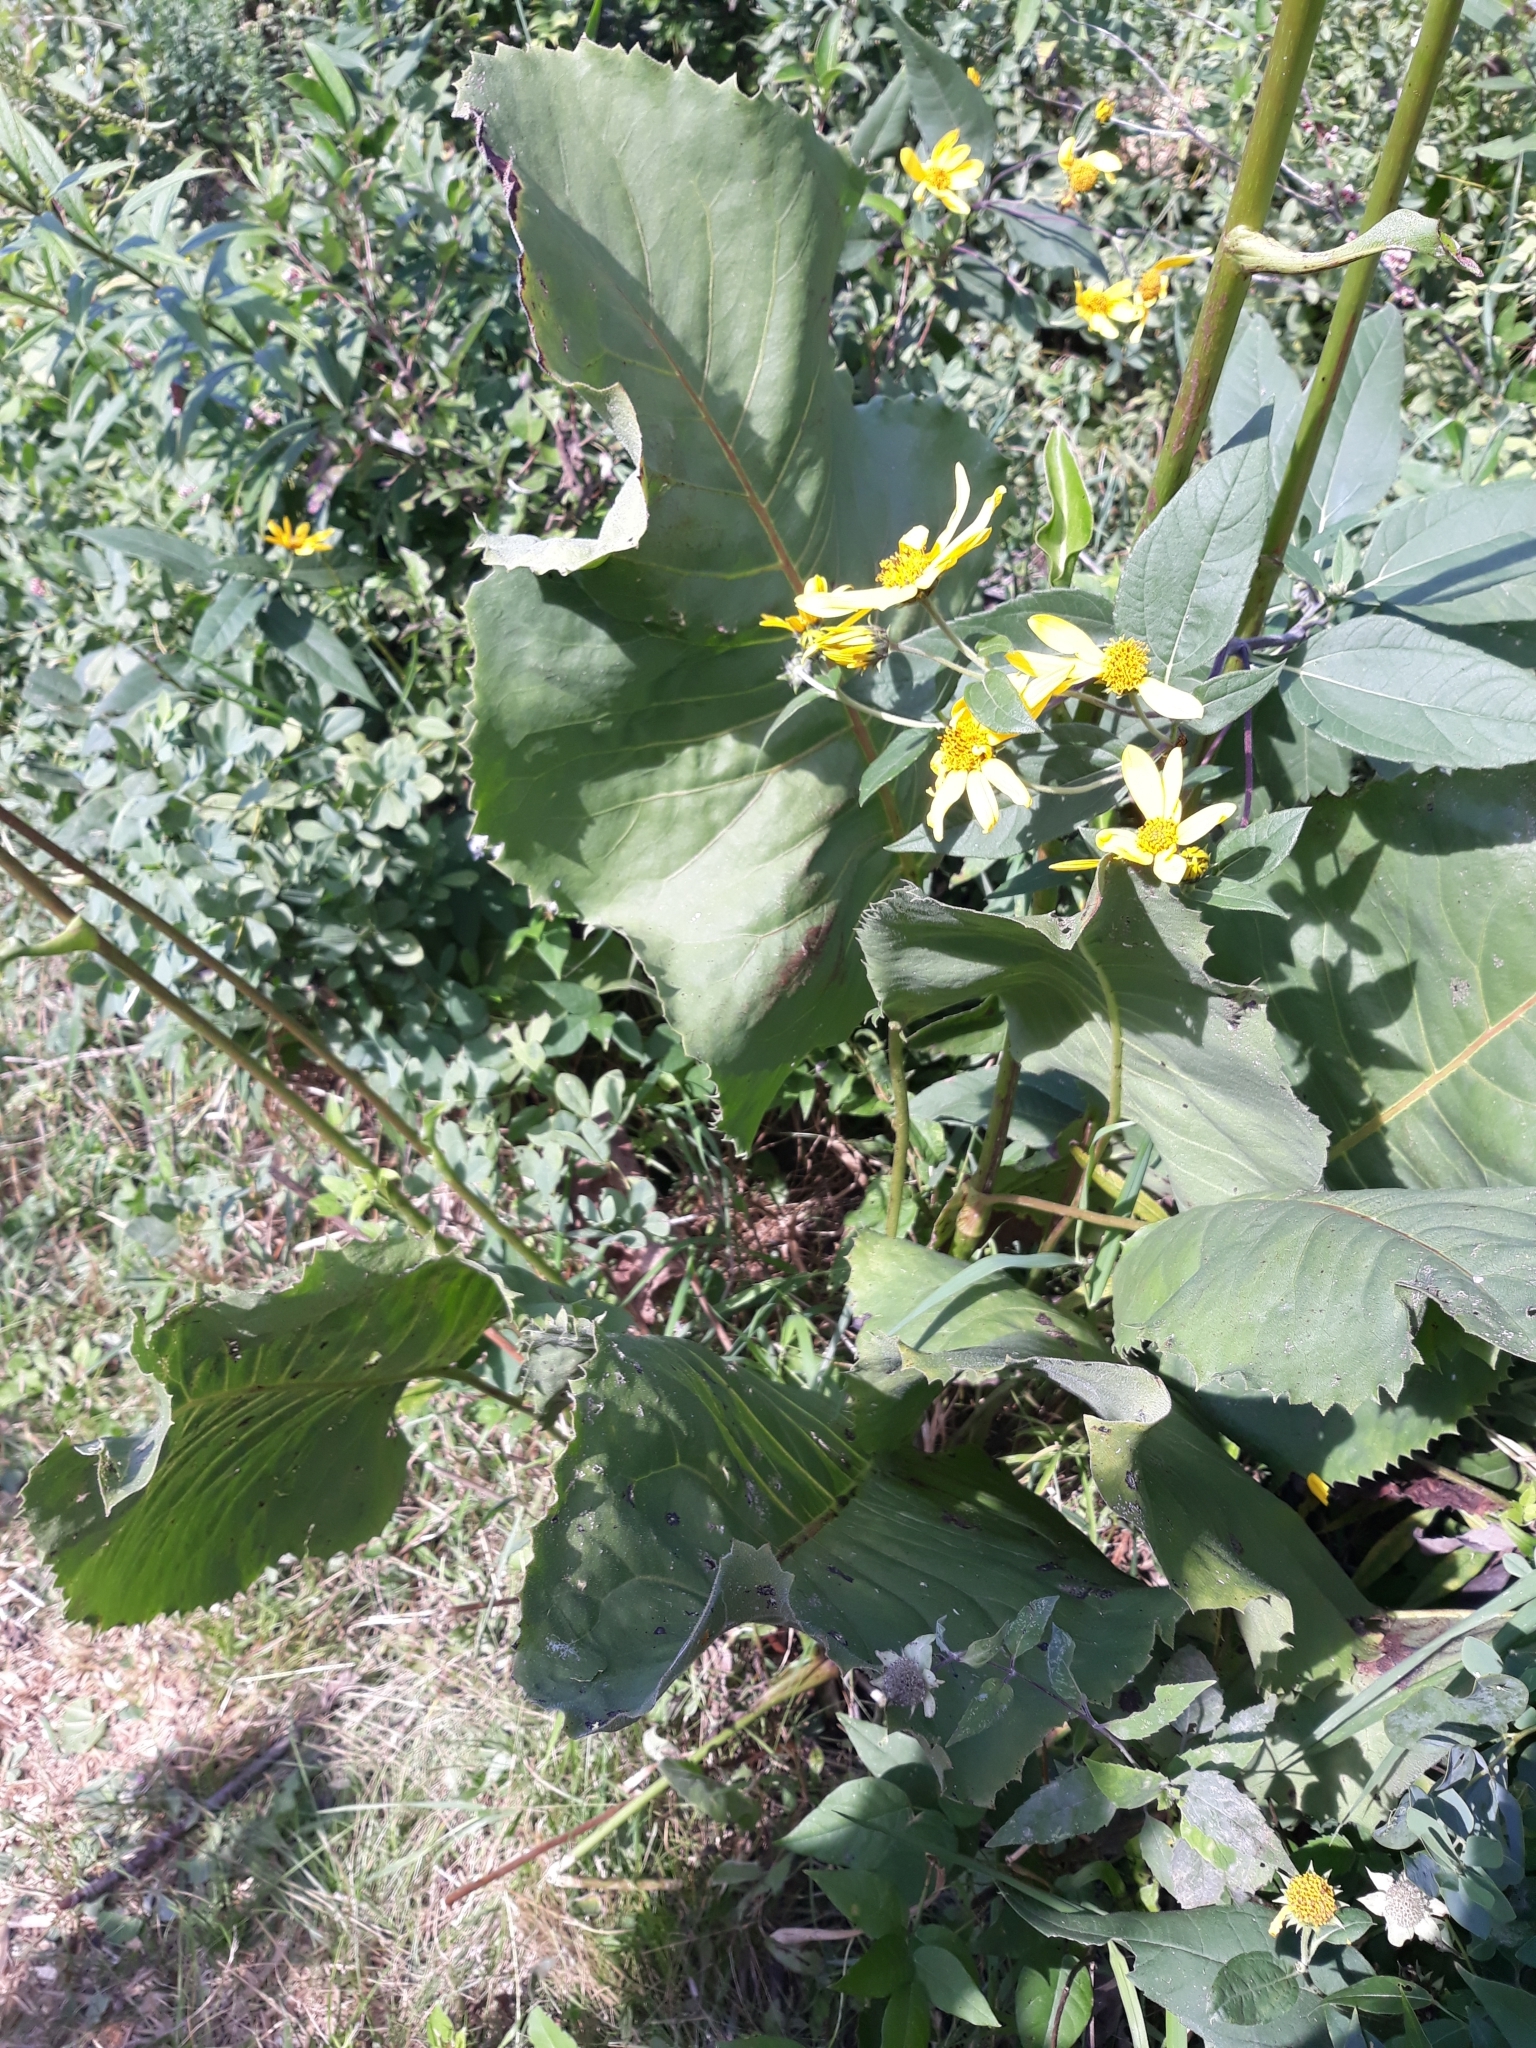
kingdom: Plantae
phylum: Tracheophyta
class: Magnoliopsida
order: Asterales
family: Asteraceae
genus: Silphium
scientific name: Silphium terebinthinaceum
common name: Basal-leaf rosinweed
